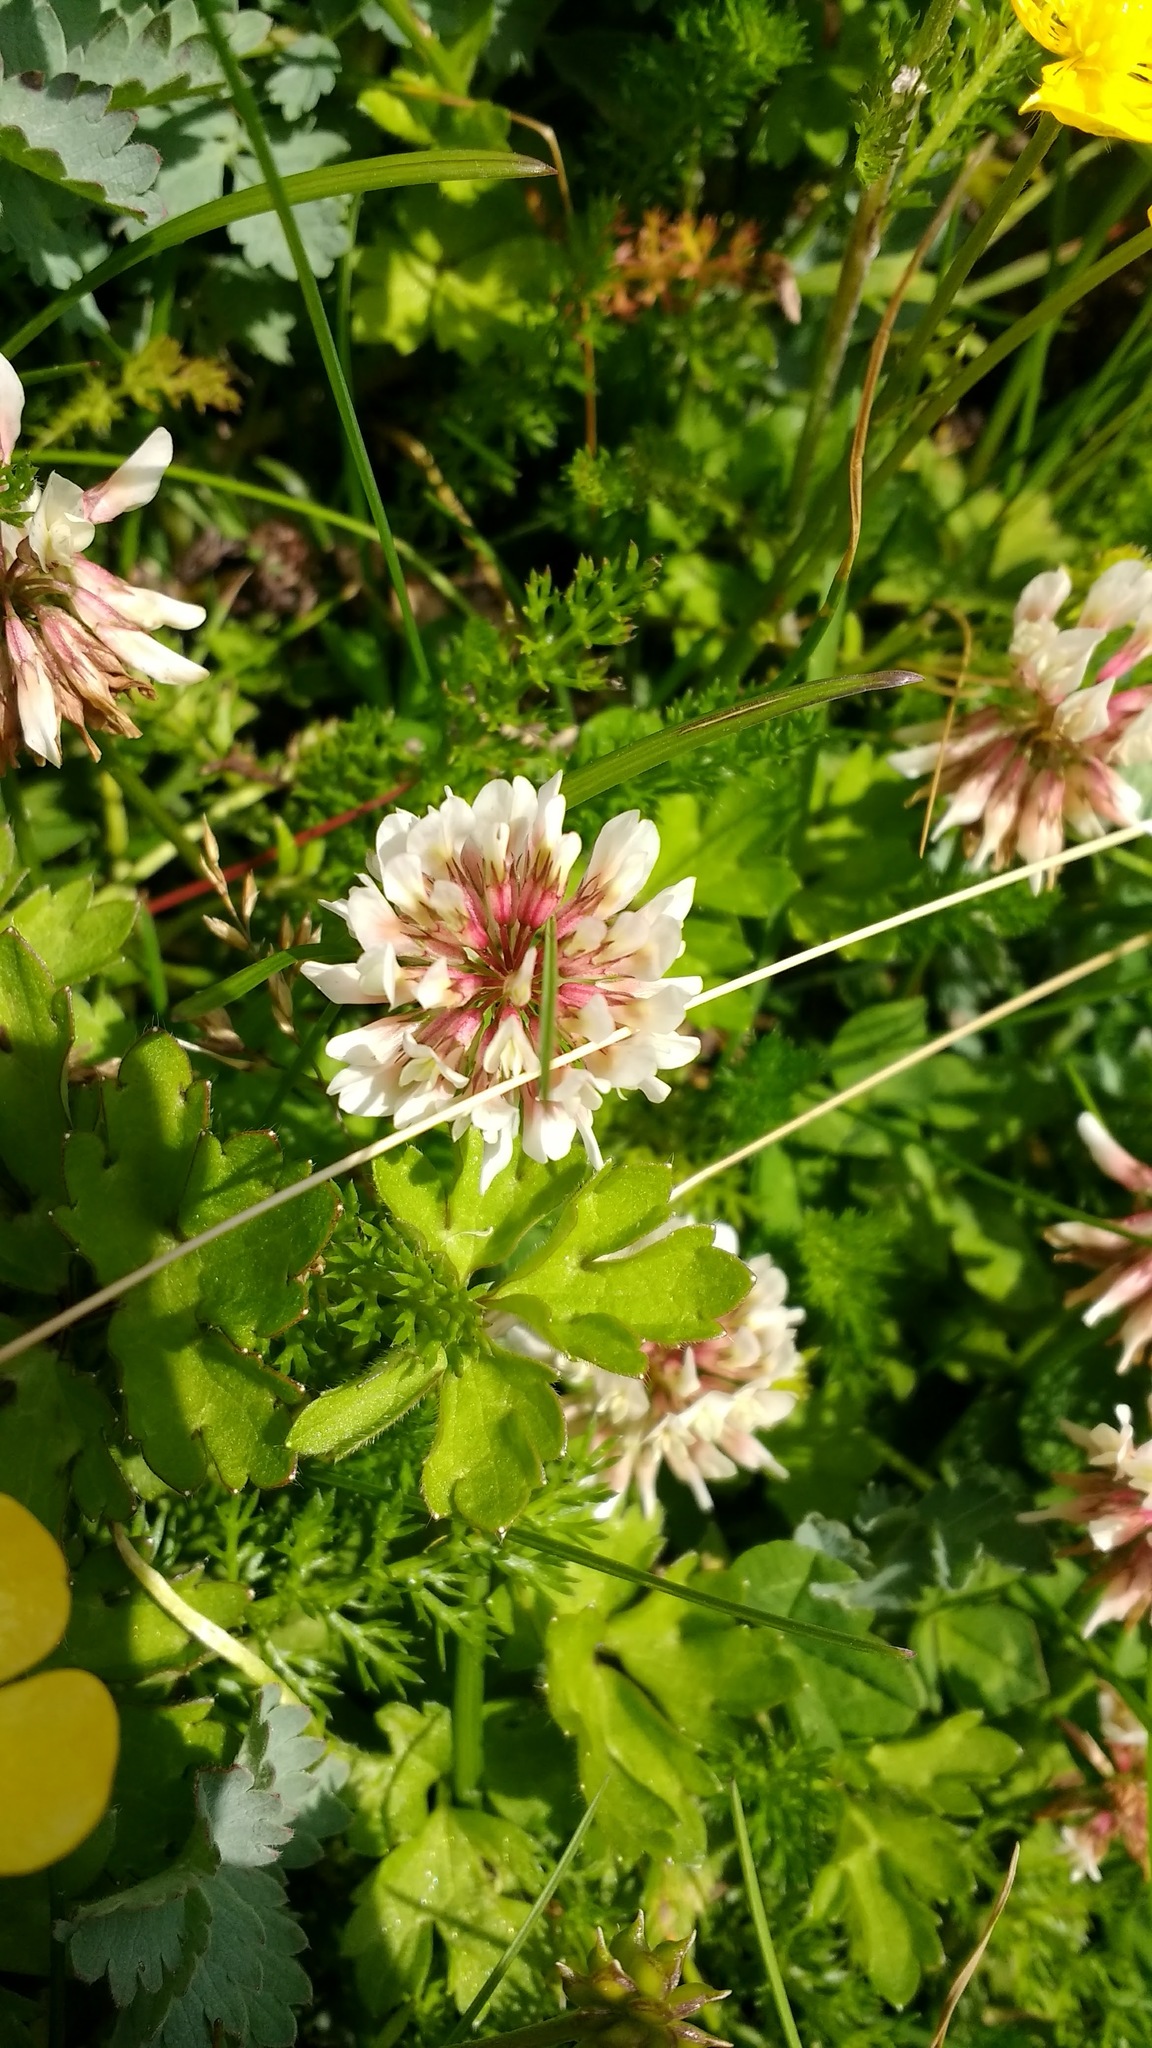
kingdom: Plantae
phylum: Tracheophyta
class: Magnoliopsida
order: Fabales
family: Fabaceae
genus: Trifolium
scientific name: Trifolium repens
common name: White clover
